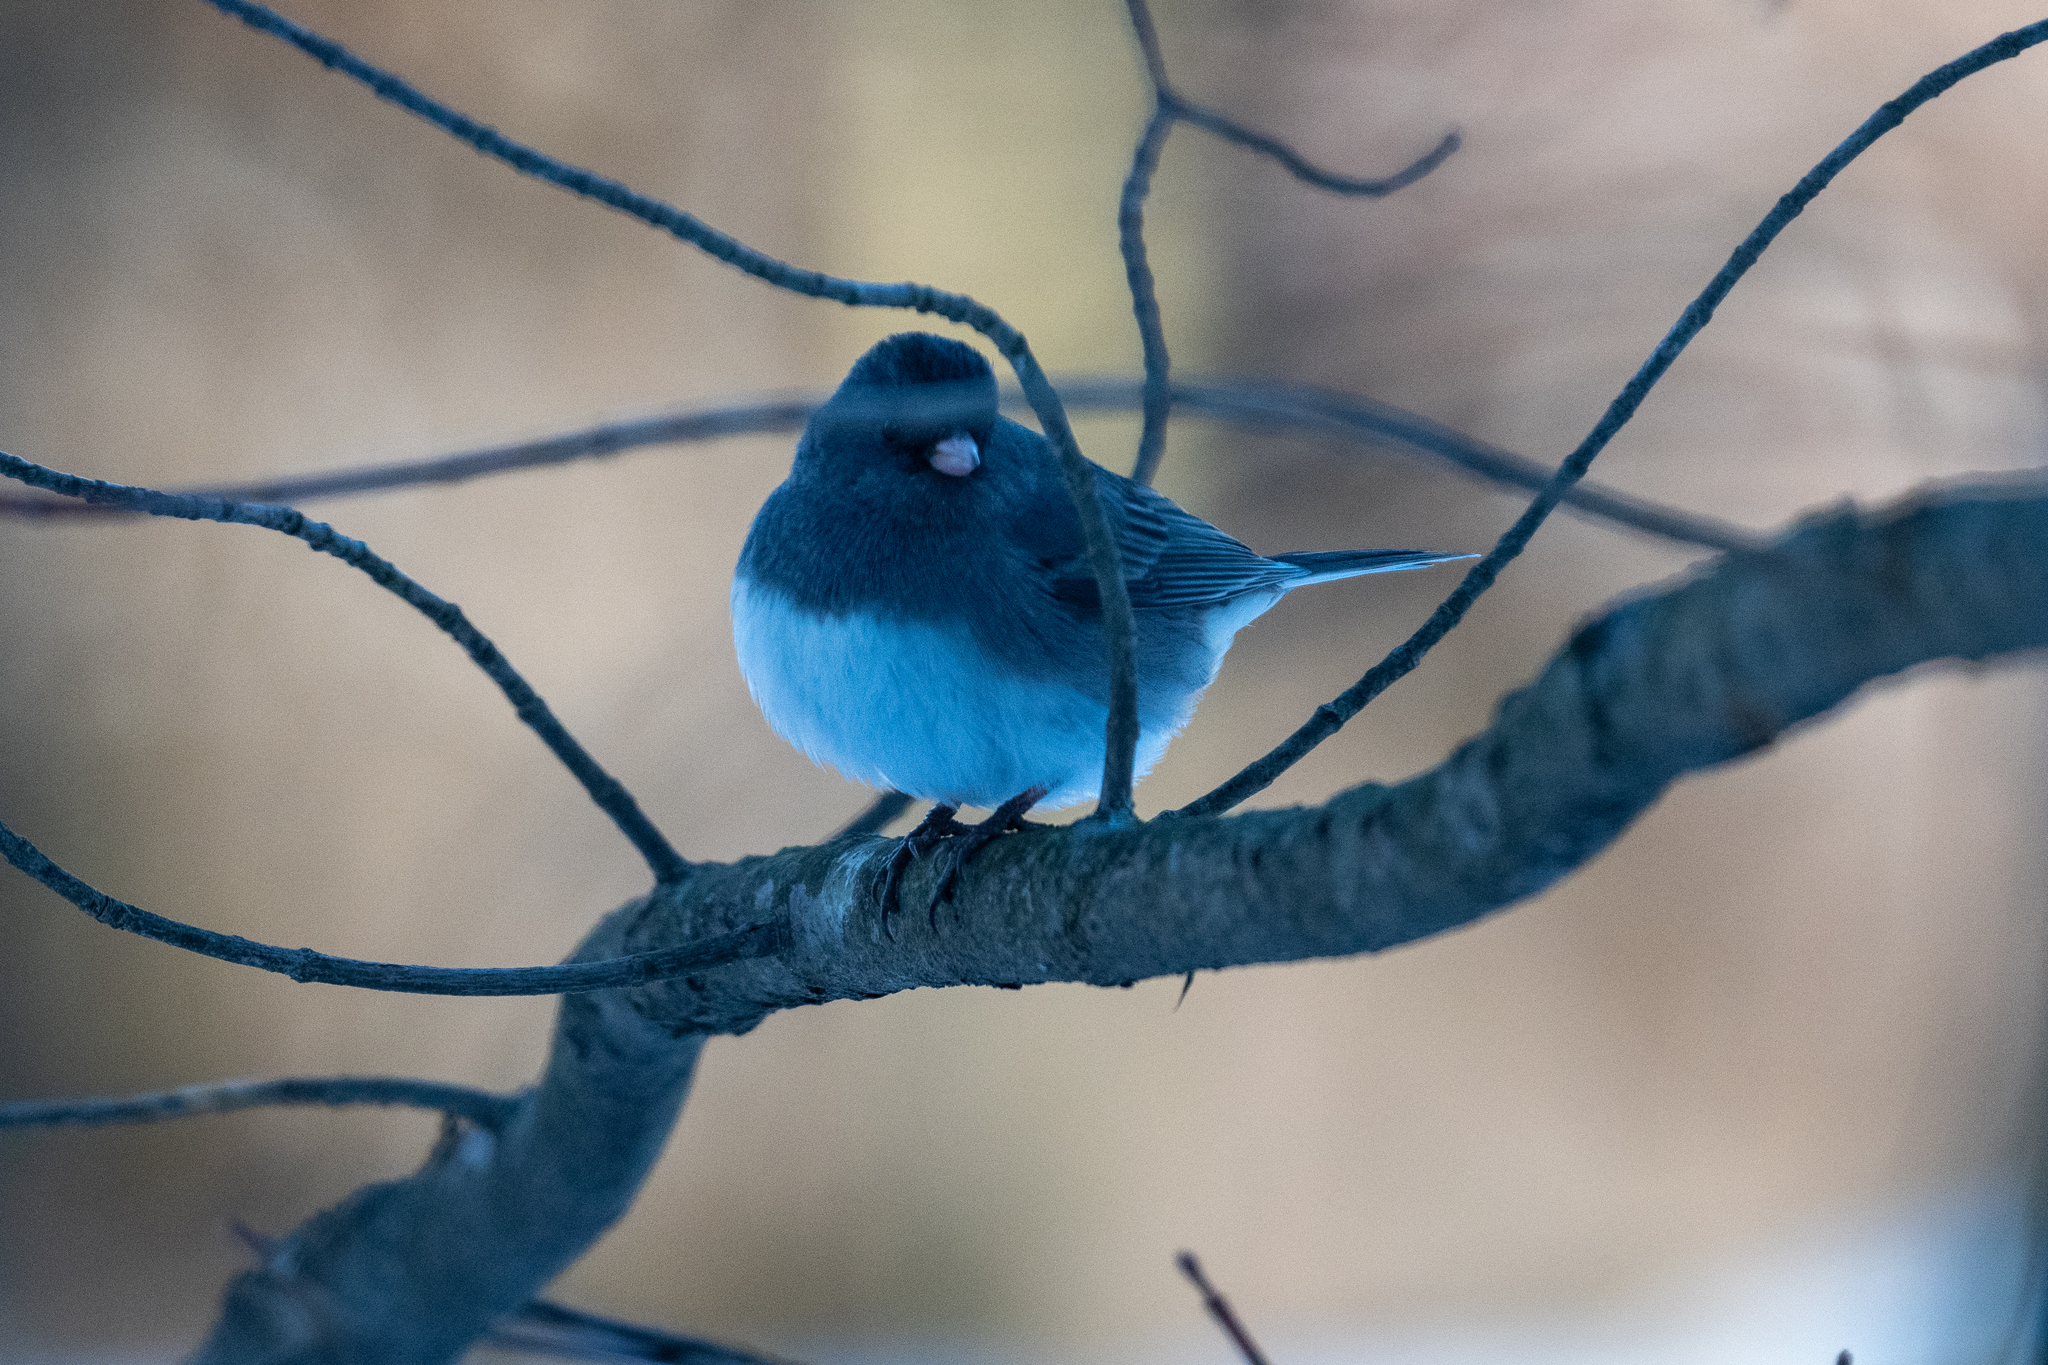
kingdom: Animalia
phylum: Chordata
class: Aves
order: Passeriformes
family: Passerellidae
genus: Junco
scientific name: Junco hyemalis
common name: Dark-eyed junco
